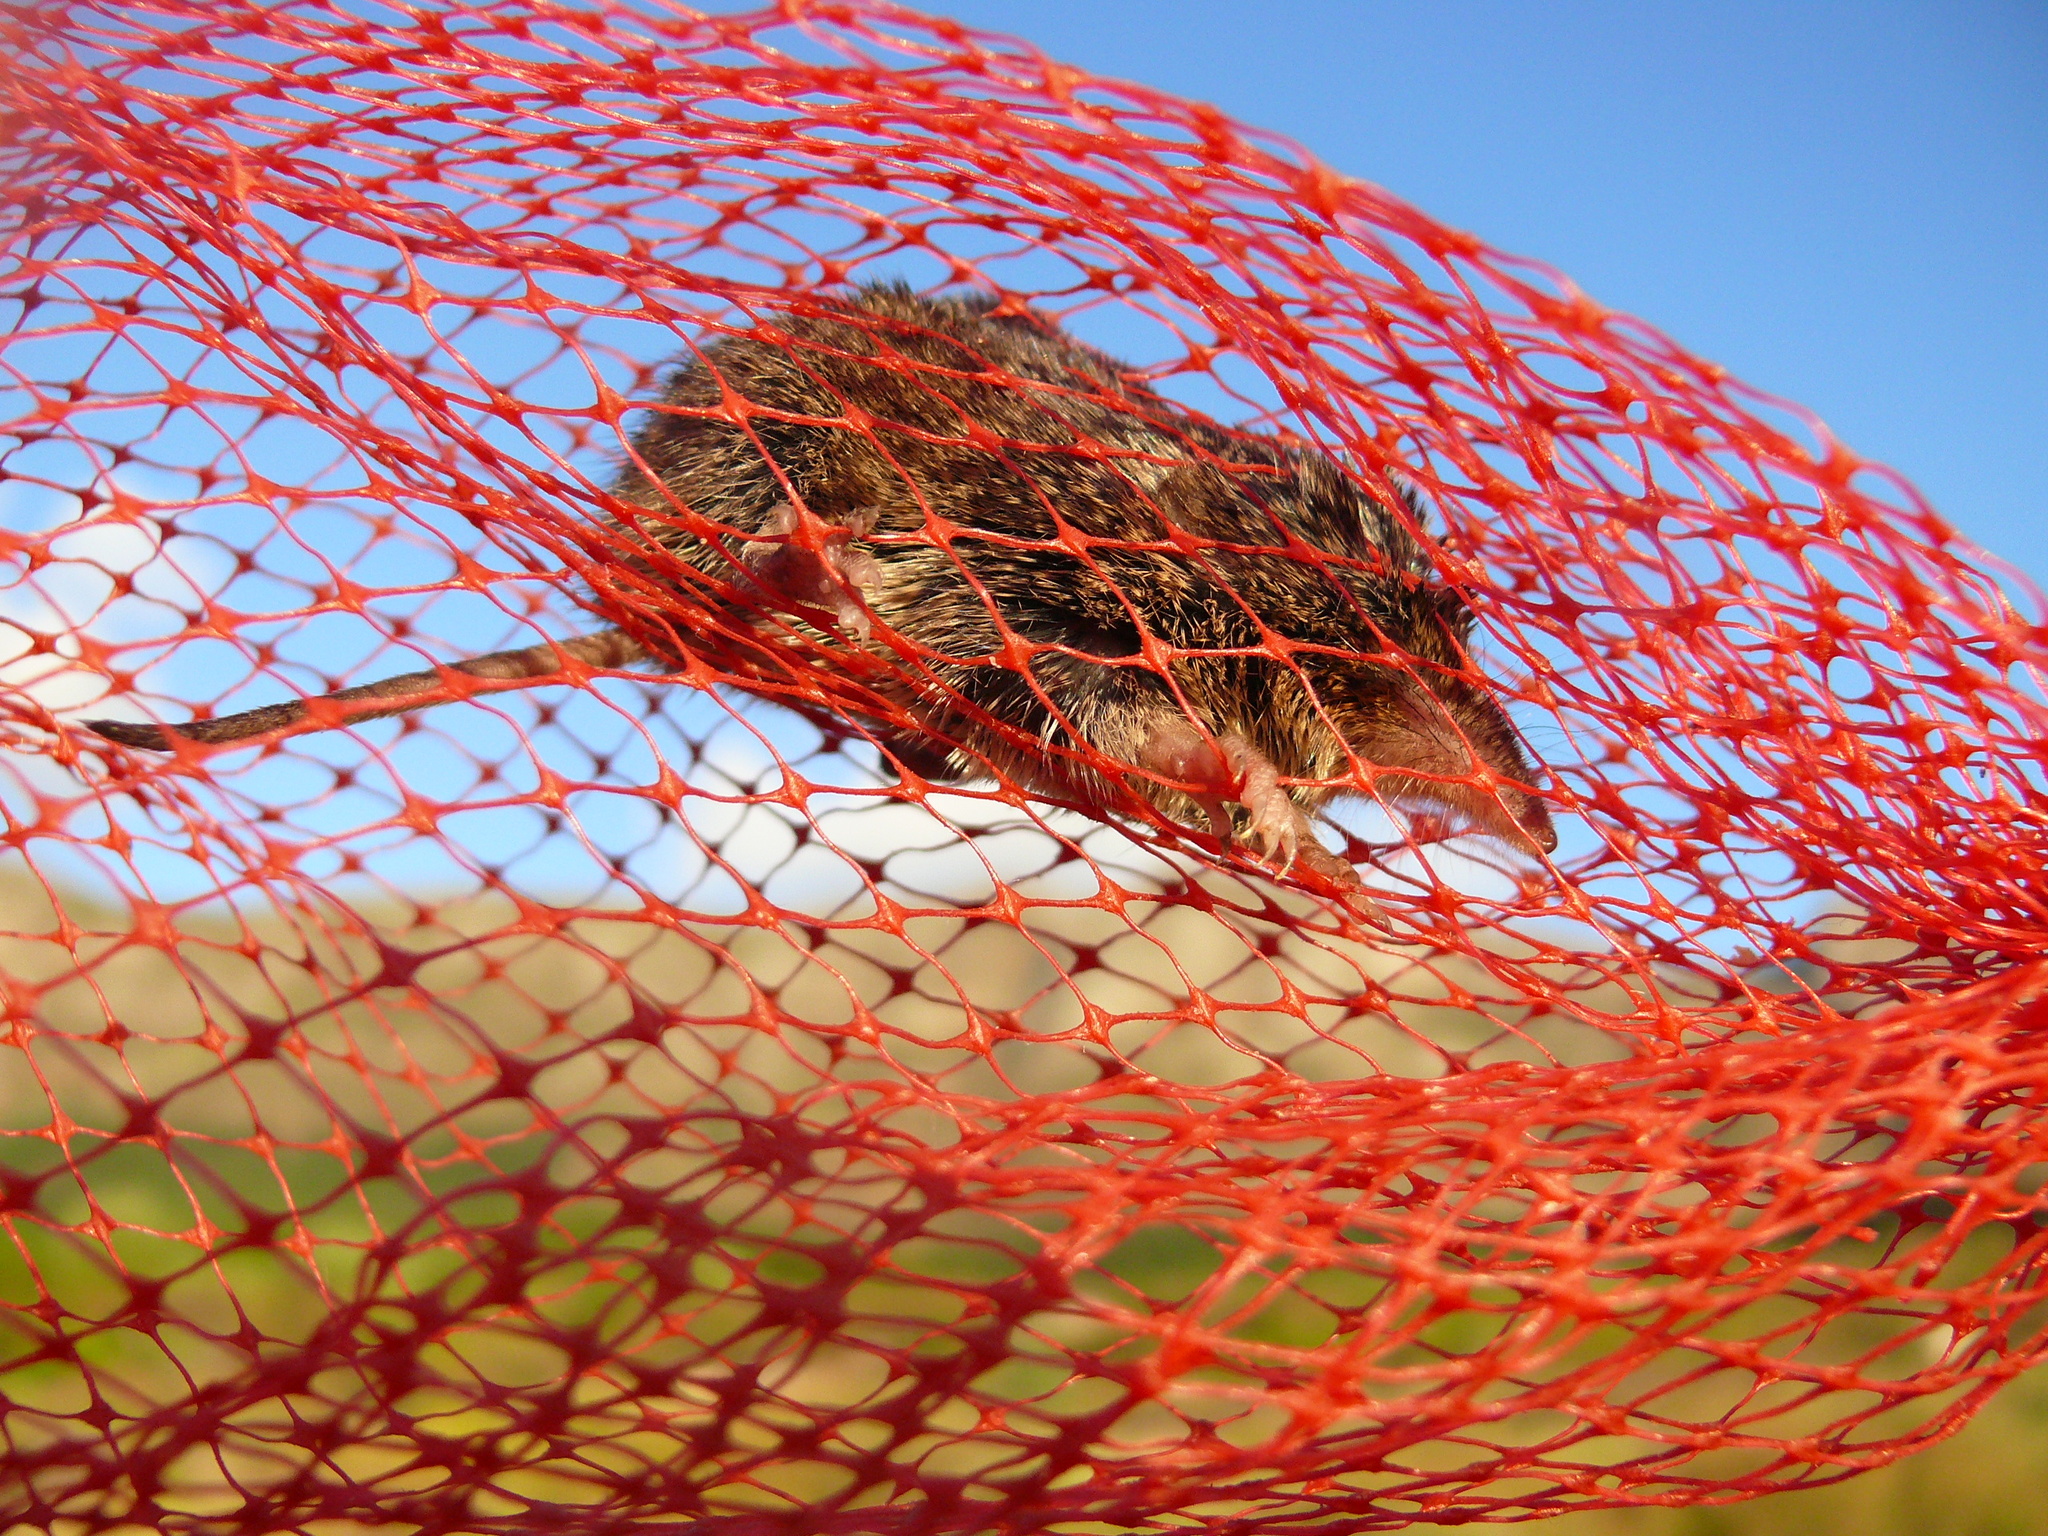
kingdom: Animalia
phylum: Chordata
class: Mammalia
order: Soricomorpha
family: Soricidae
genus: Myosorex
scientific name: Myosorex varius
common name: Forest shrew
